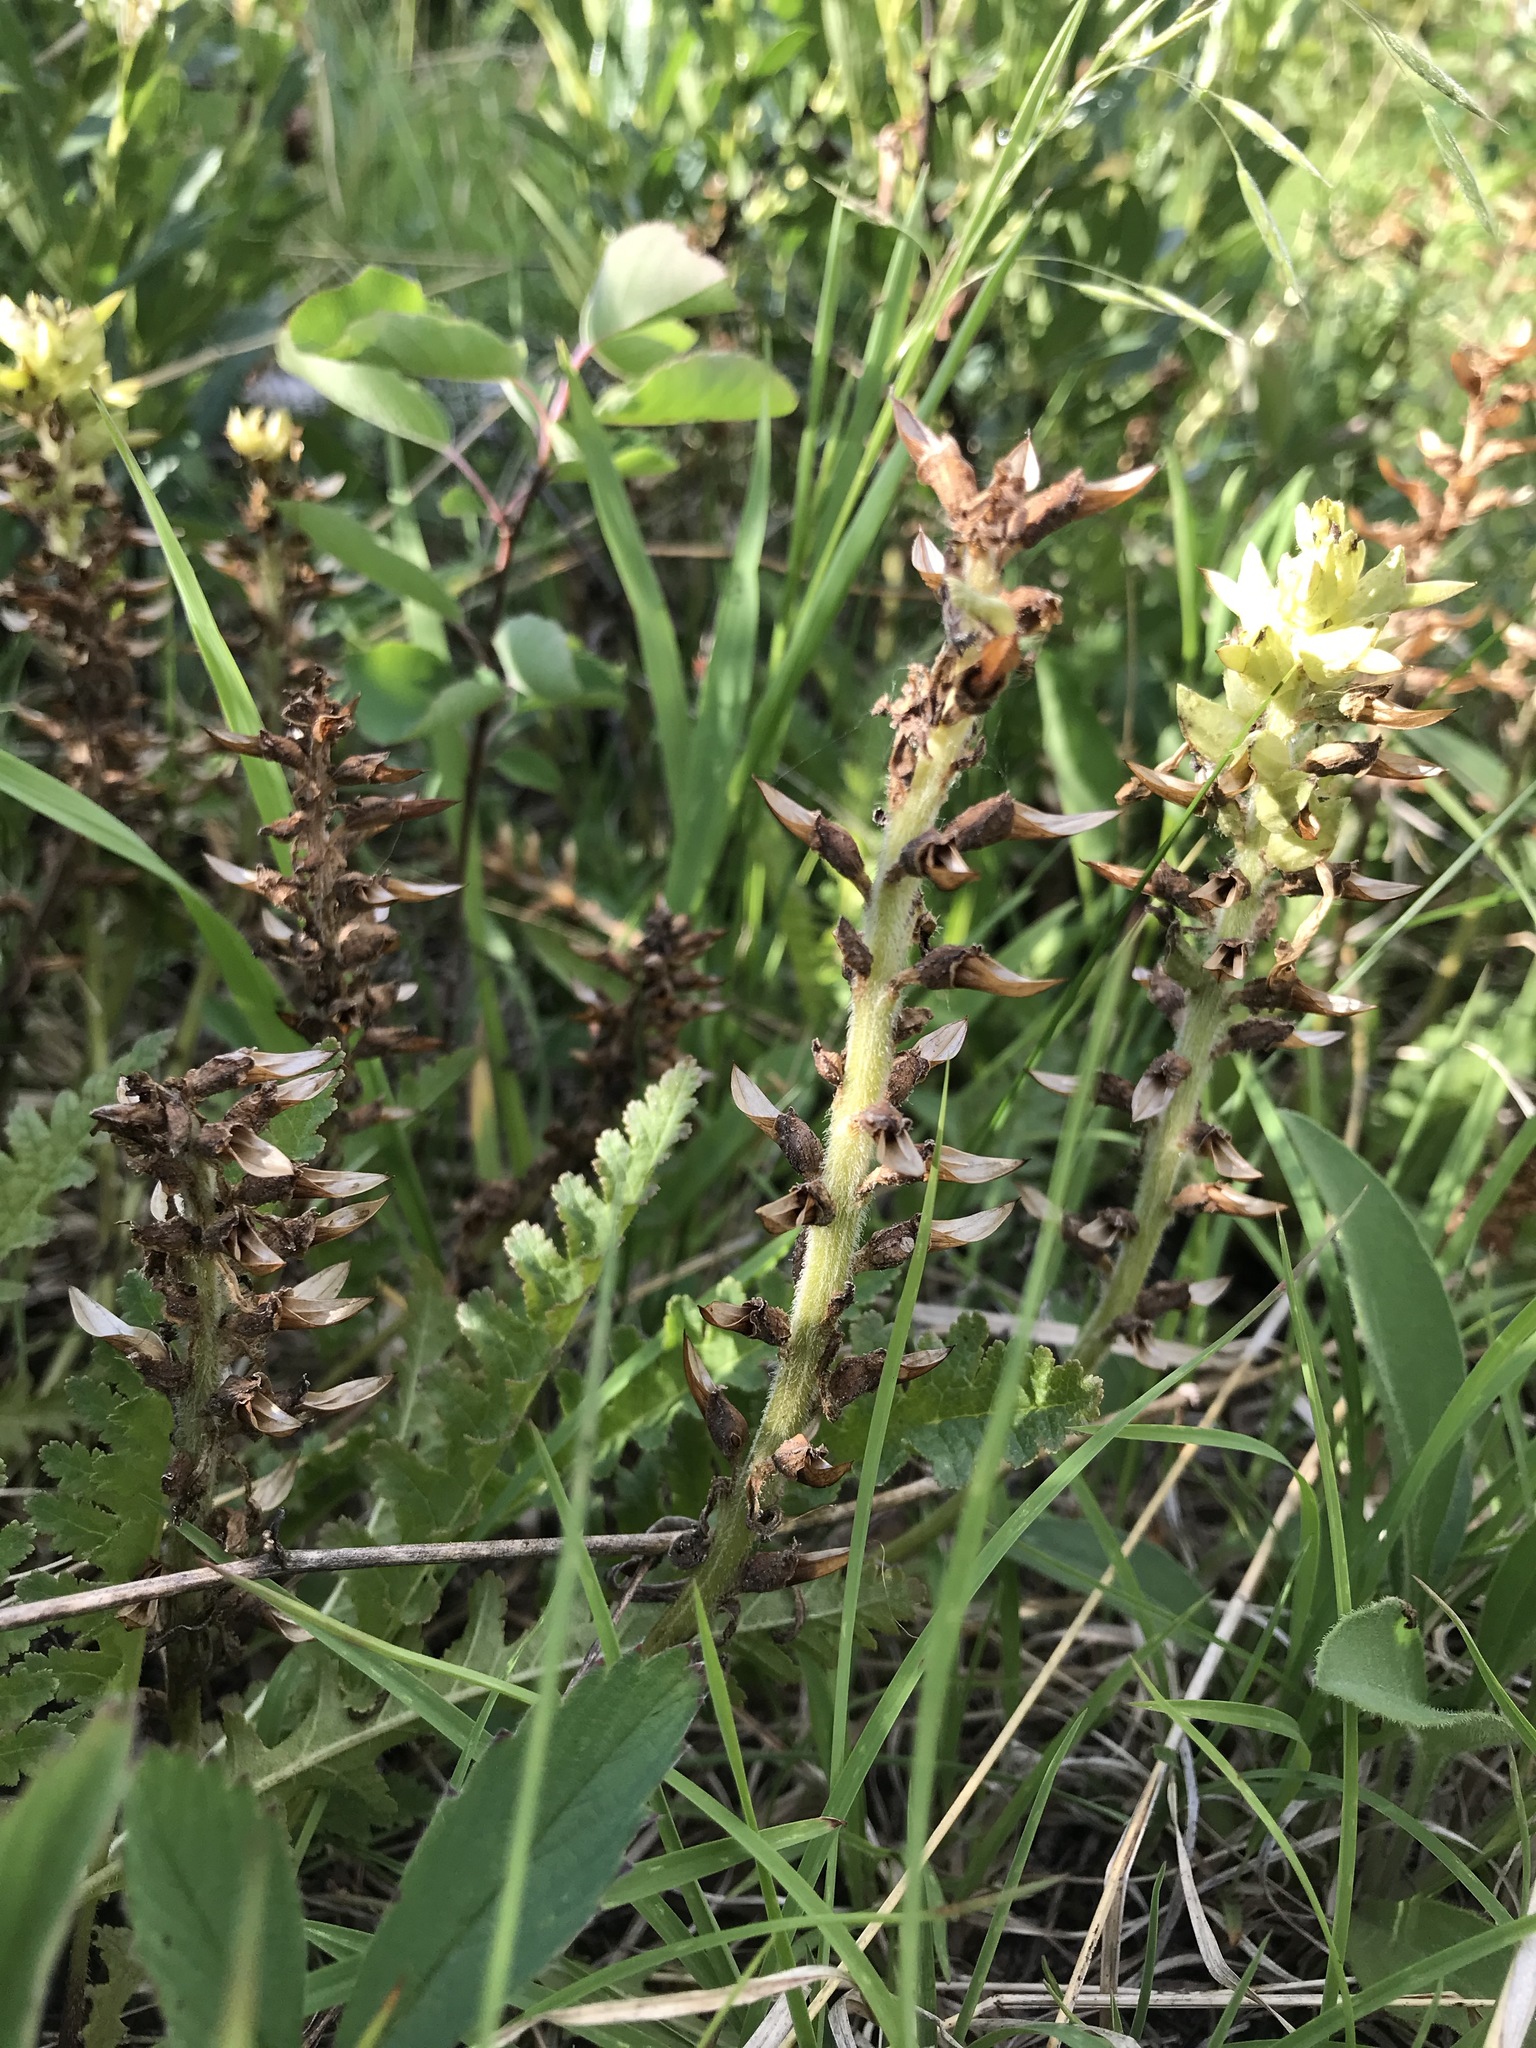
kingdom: Plantae
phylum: Tracheophyta
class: Magnoliopsida
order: Lamiales
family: Orobanchaceae
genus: Pedicularis
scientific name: Pedicularis canadensis
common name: Early lousewort
